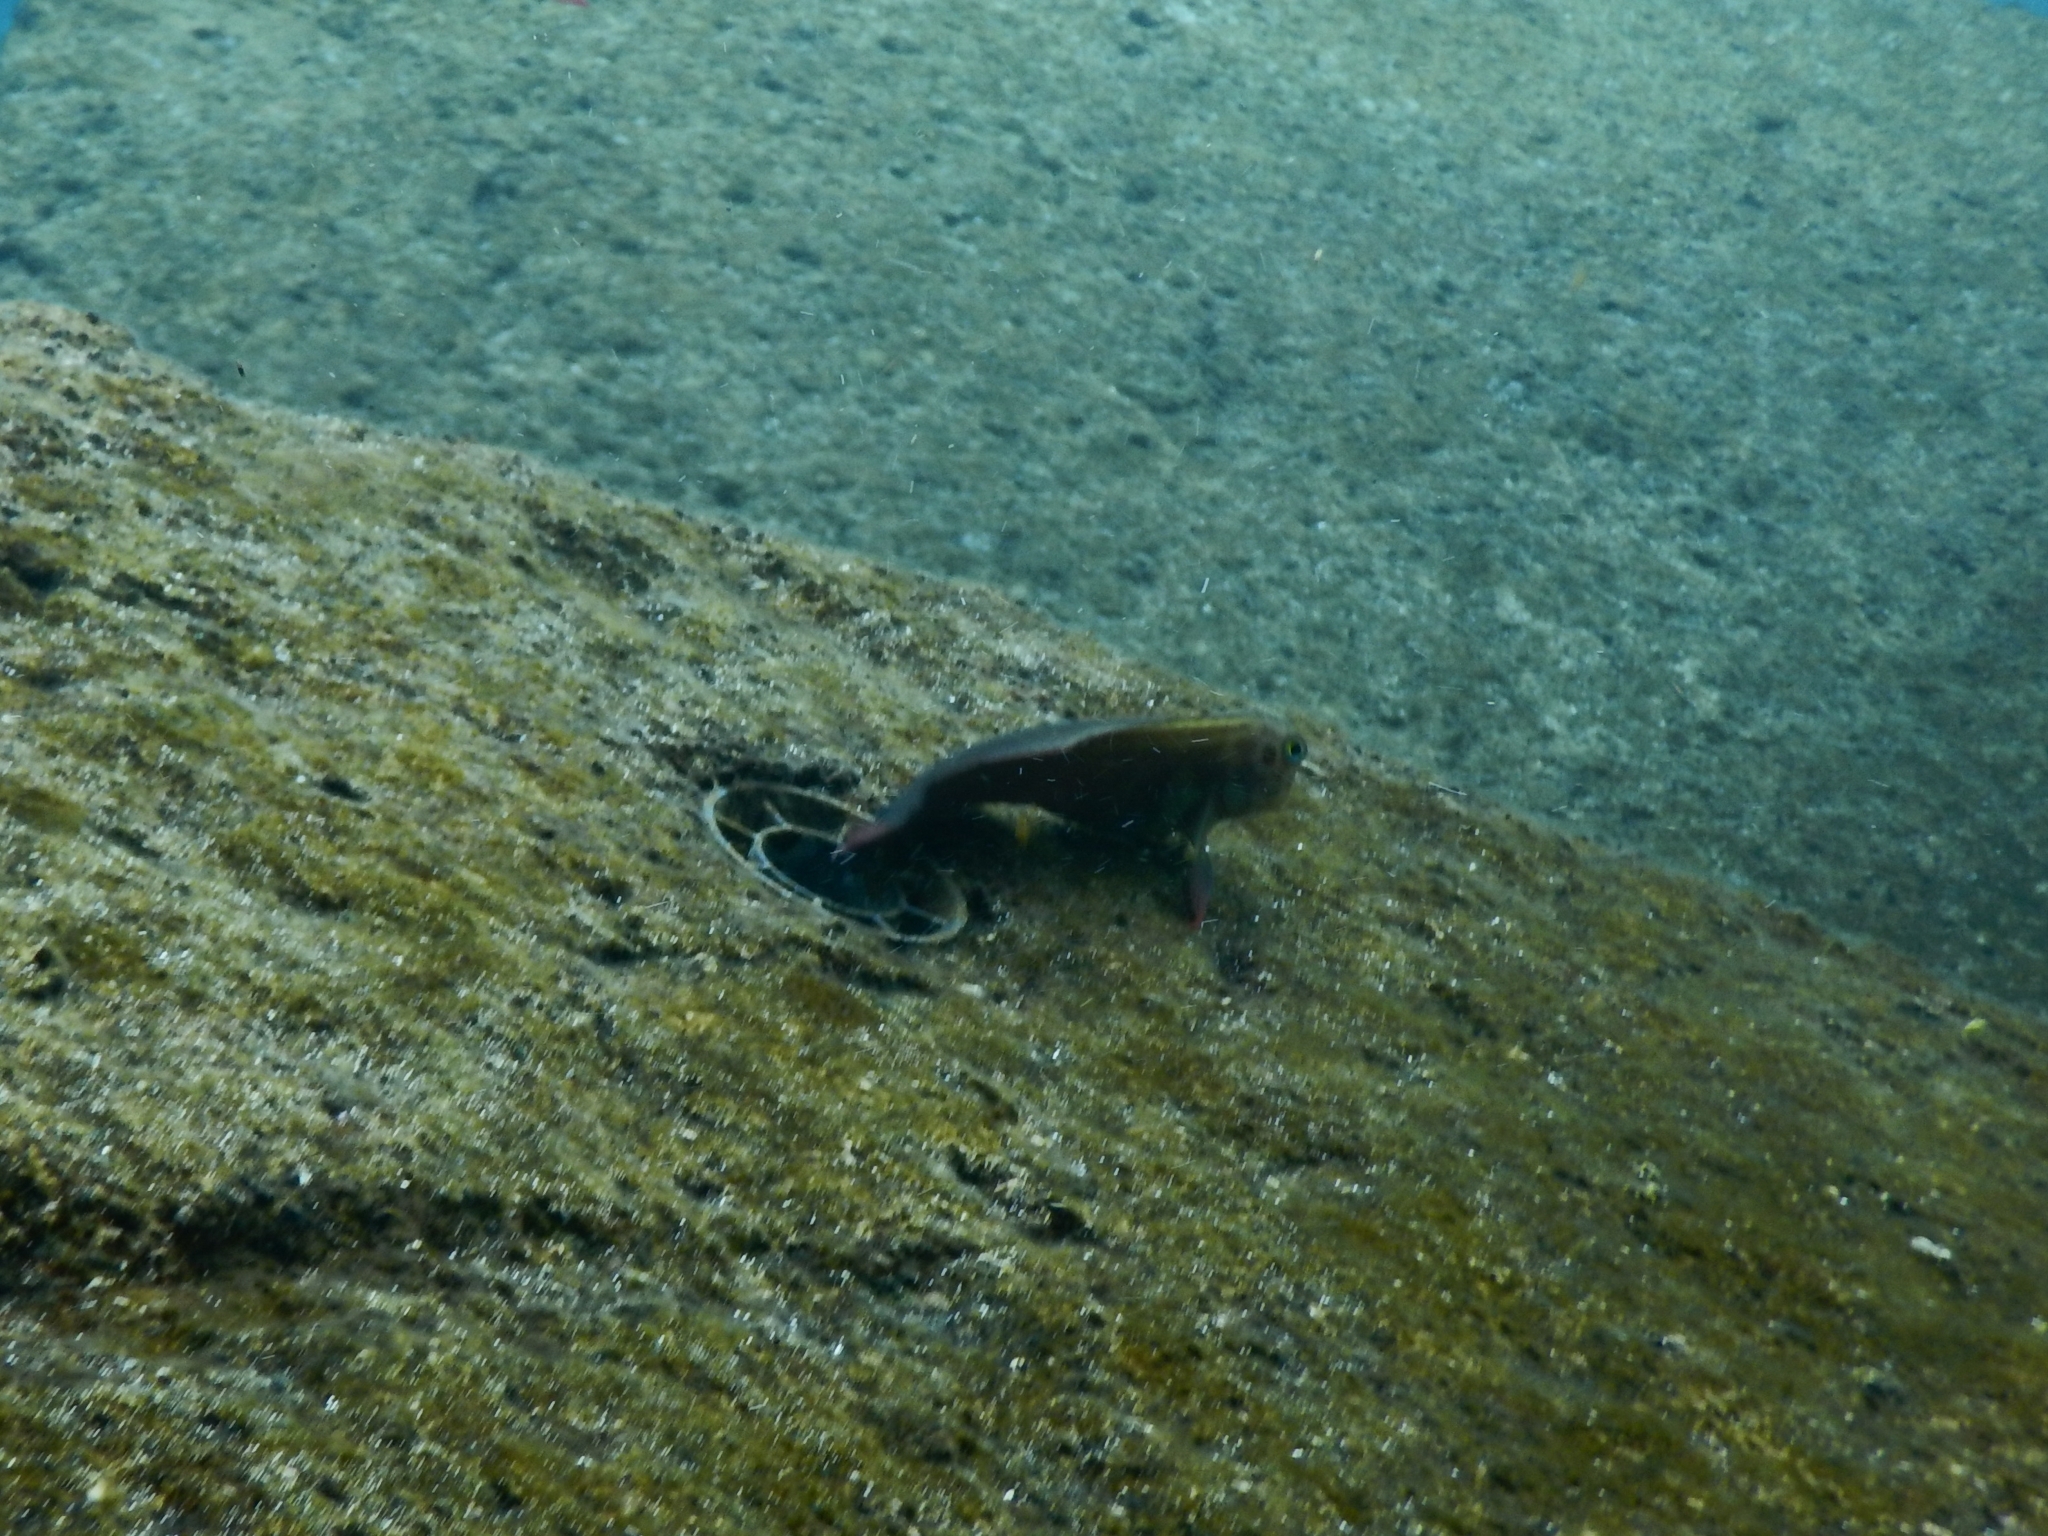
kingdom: Animalia
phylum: Chordata
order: Perciformes
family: Blenniidae
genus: Ophioblennius
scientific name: Ophioblennius atlanticus
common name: Redlip blenny
